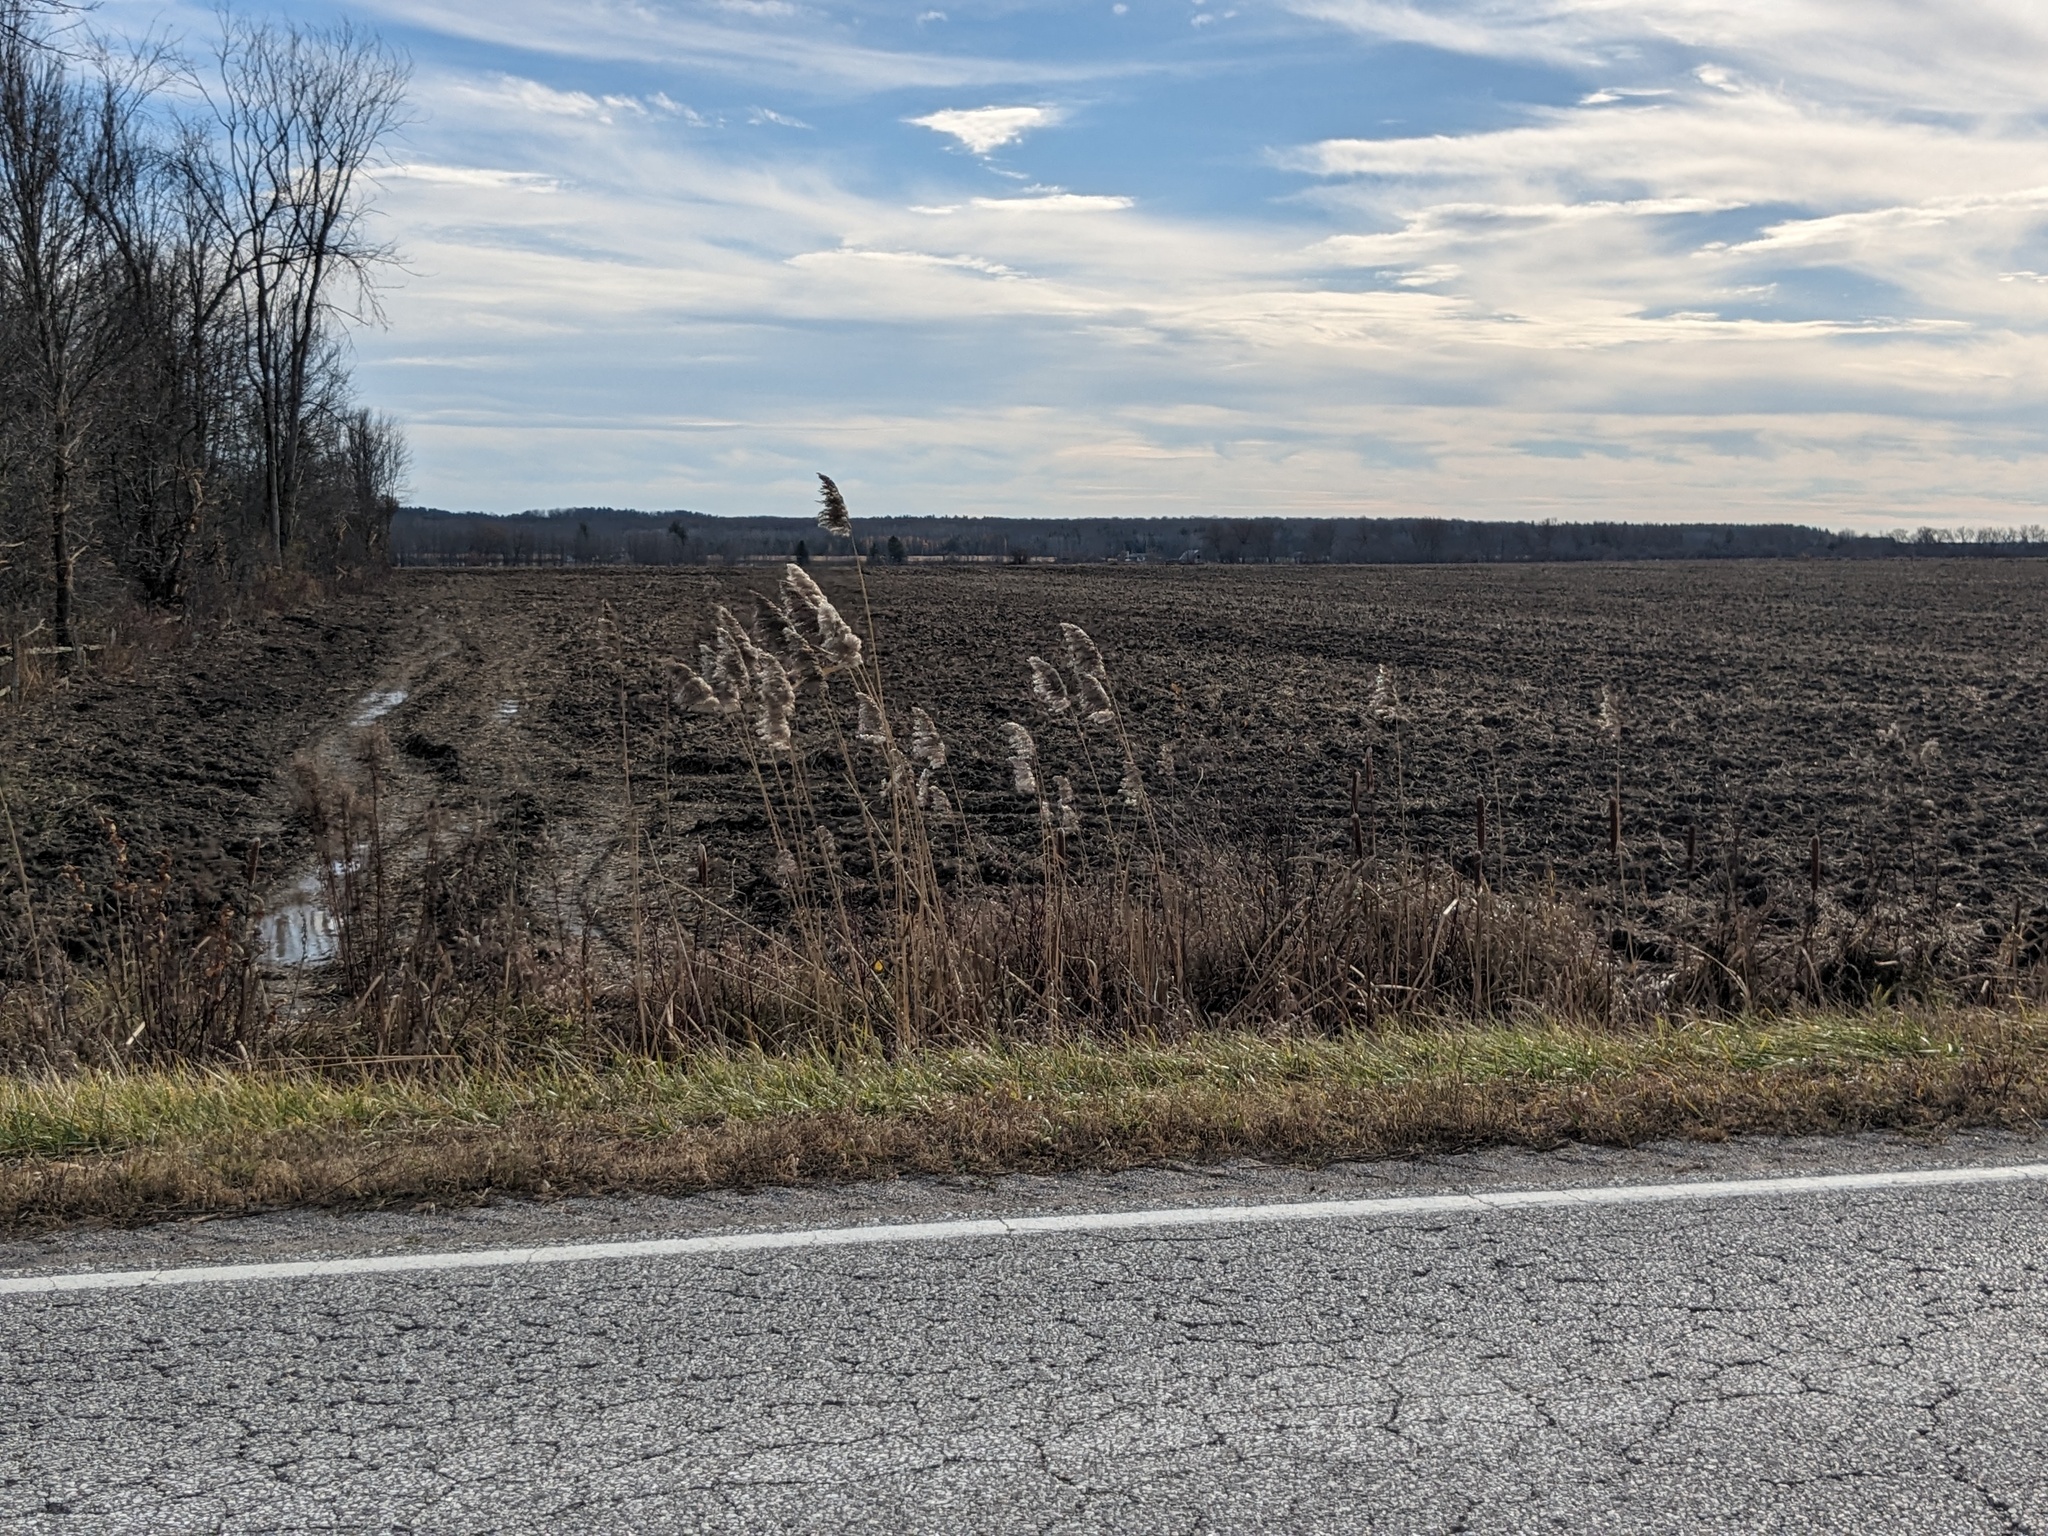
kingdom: Plantae
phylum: Tracheophyta
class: Liliopsida
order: Poales
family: Poaceae
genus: Phragmites
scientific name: Phragmites australis
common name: Common reed
